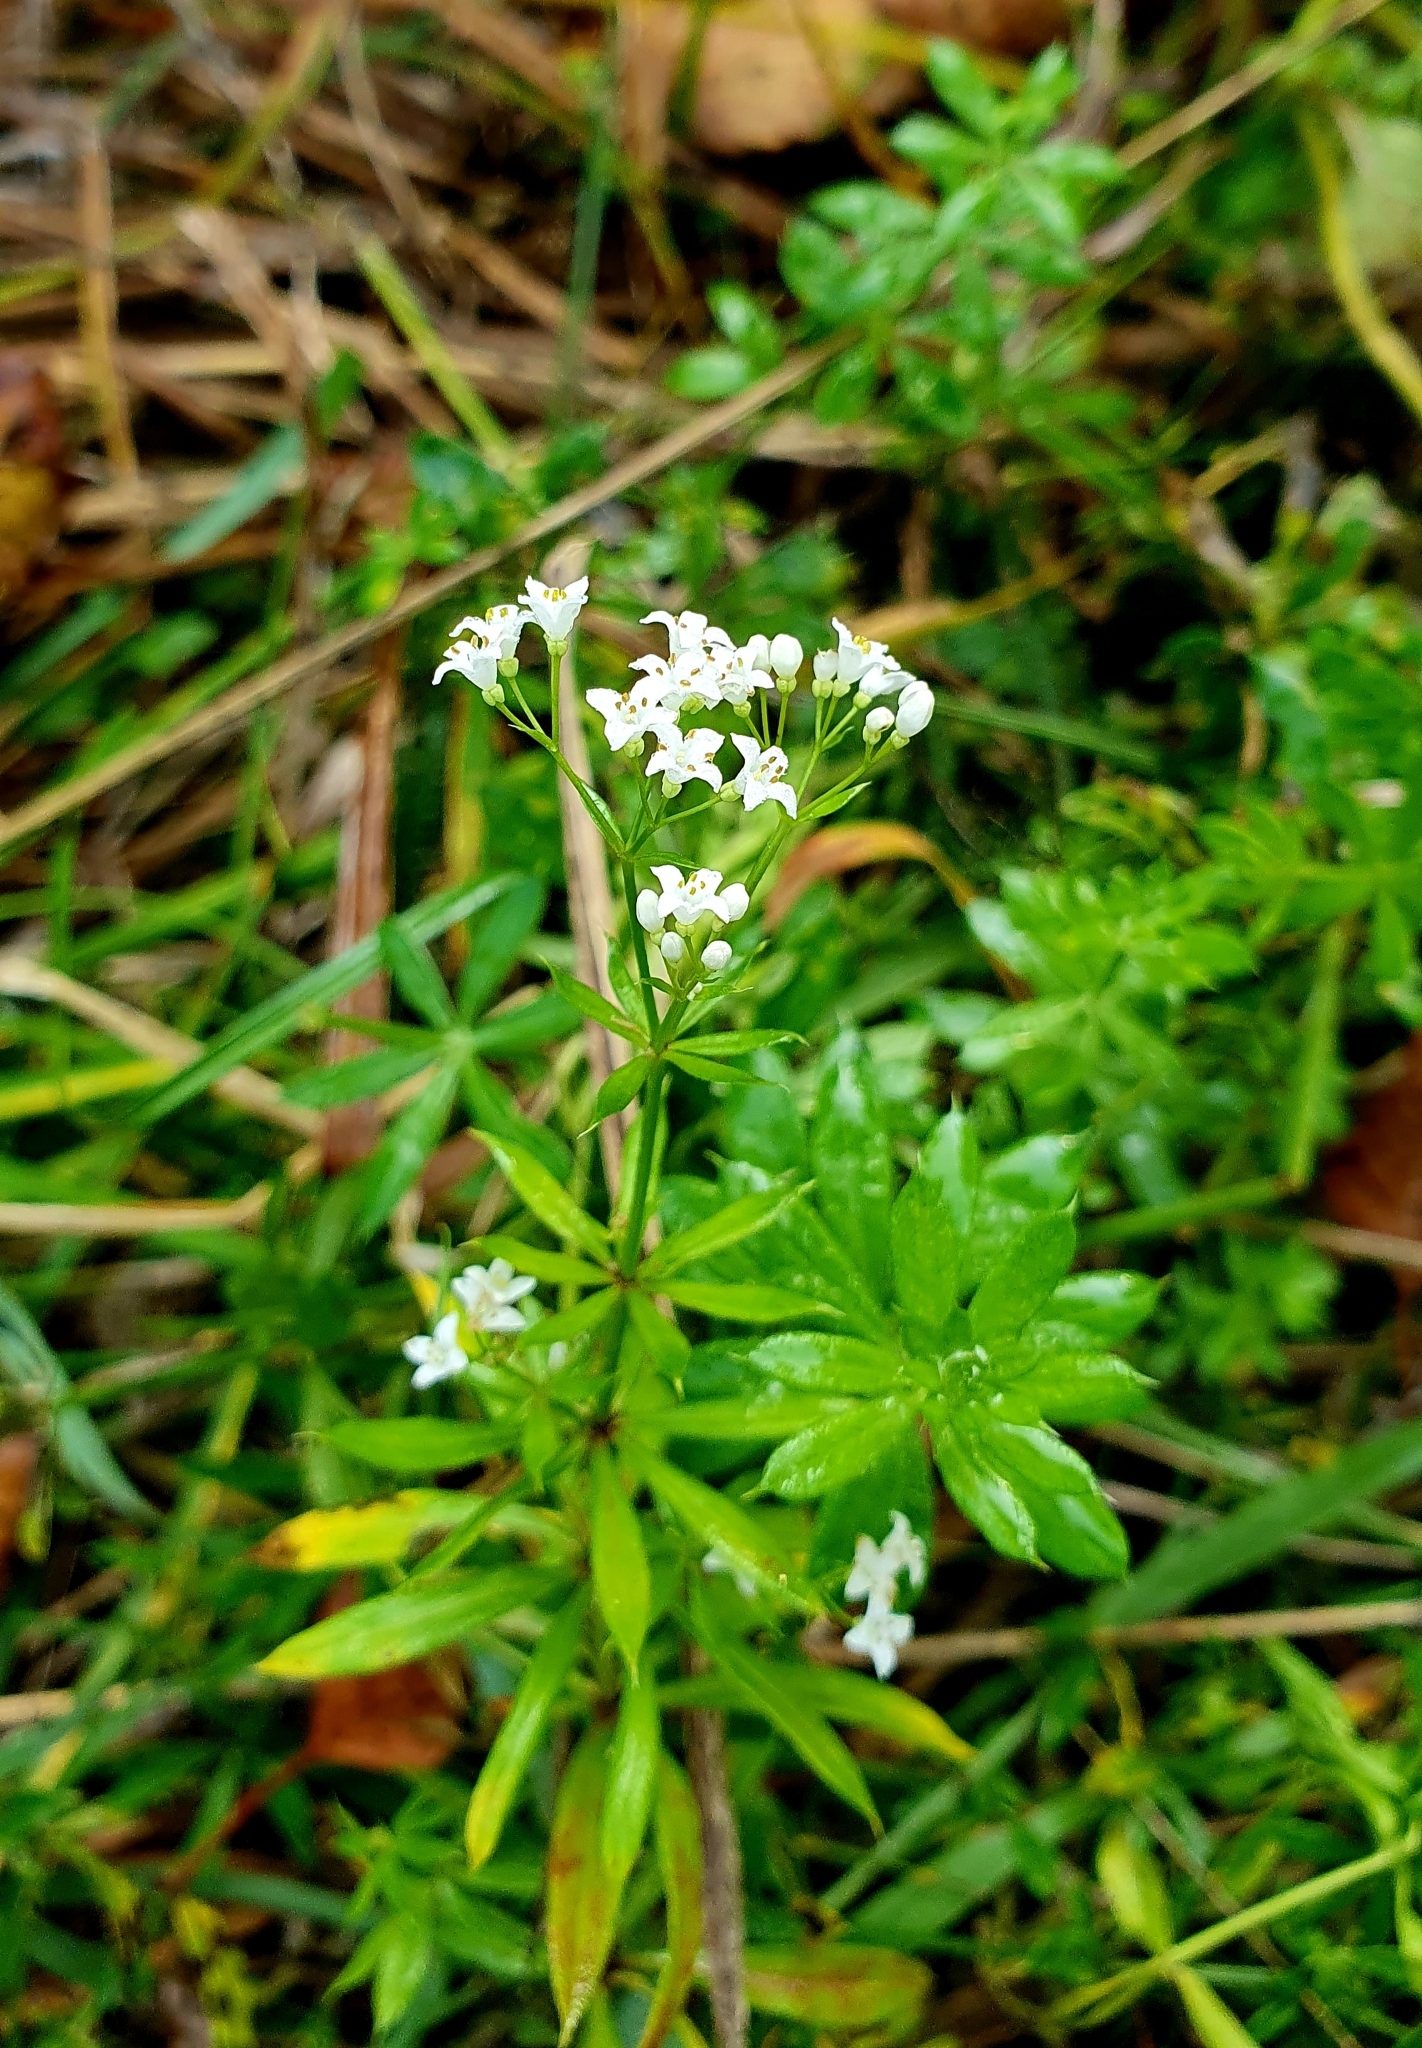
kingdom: Plantae
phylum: Tracheophyta
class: Magnoliopsida
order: Gentianales
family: Rubiaceae
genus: Galium
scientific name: Galium rivale
